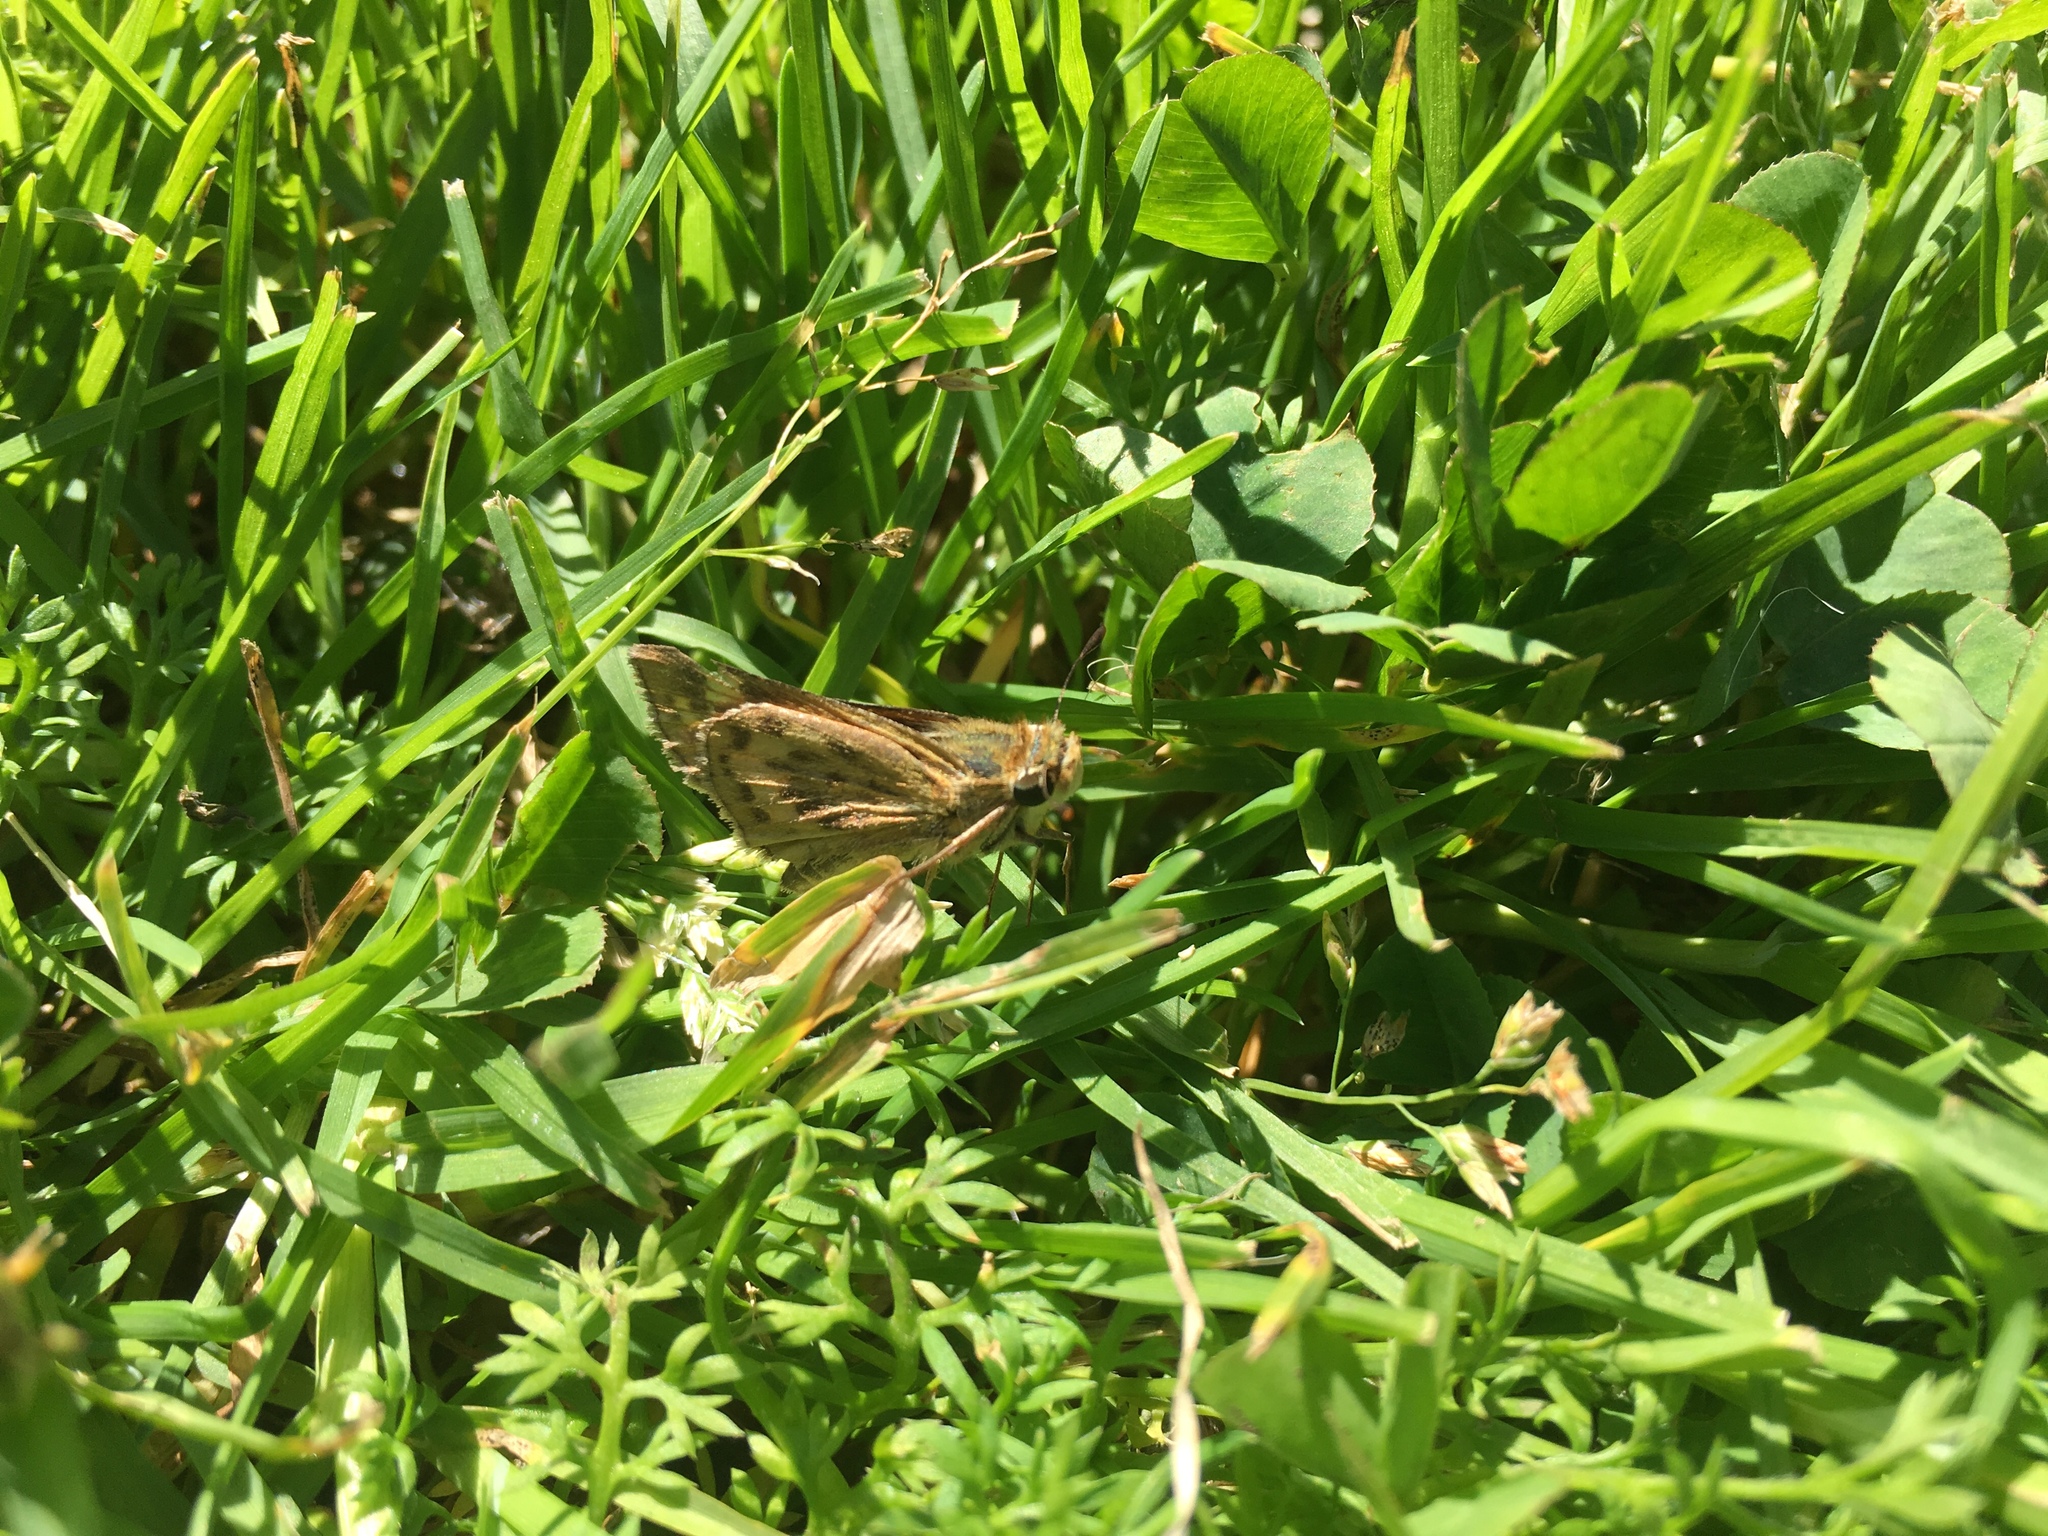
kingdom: Animalia
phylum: Arthropoda
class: Insecta
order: Lepidoptera
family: Hesperiidae
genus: Hylephila
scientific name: Hylephila phyleus
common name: Fiery skipper
